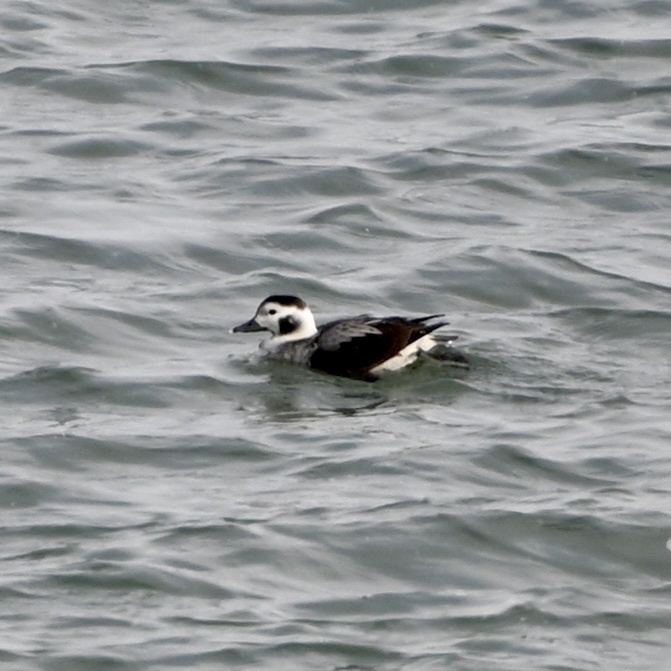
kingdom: Animalia
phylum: Chordata
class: Aves
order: Anseriformes
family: Anatidae
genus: Clangula
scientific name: Clangula hyemalis
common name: Long-tailed duck
